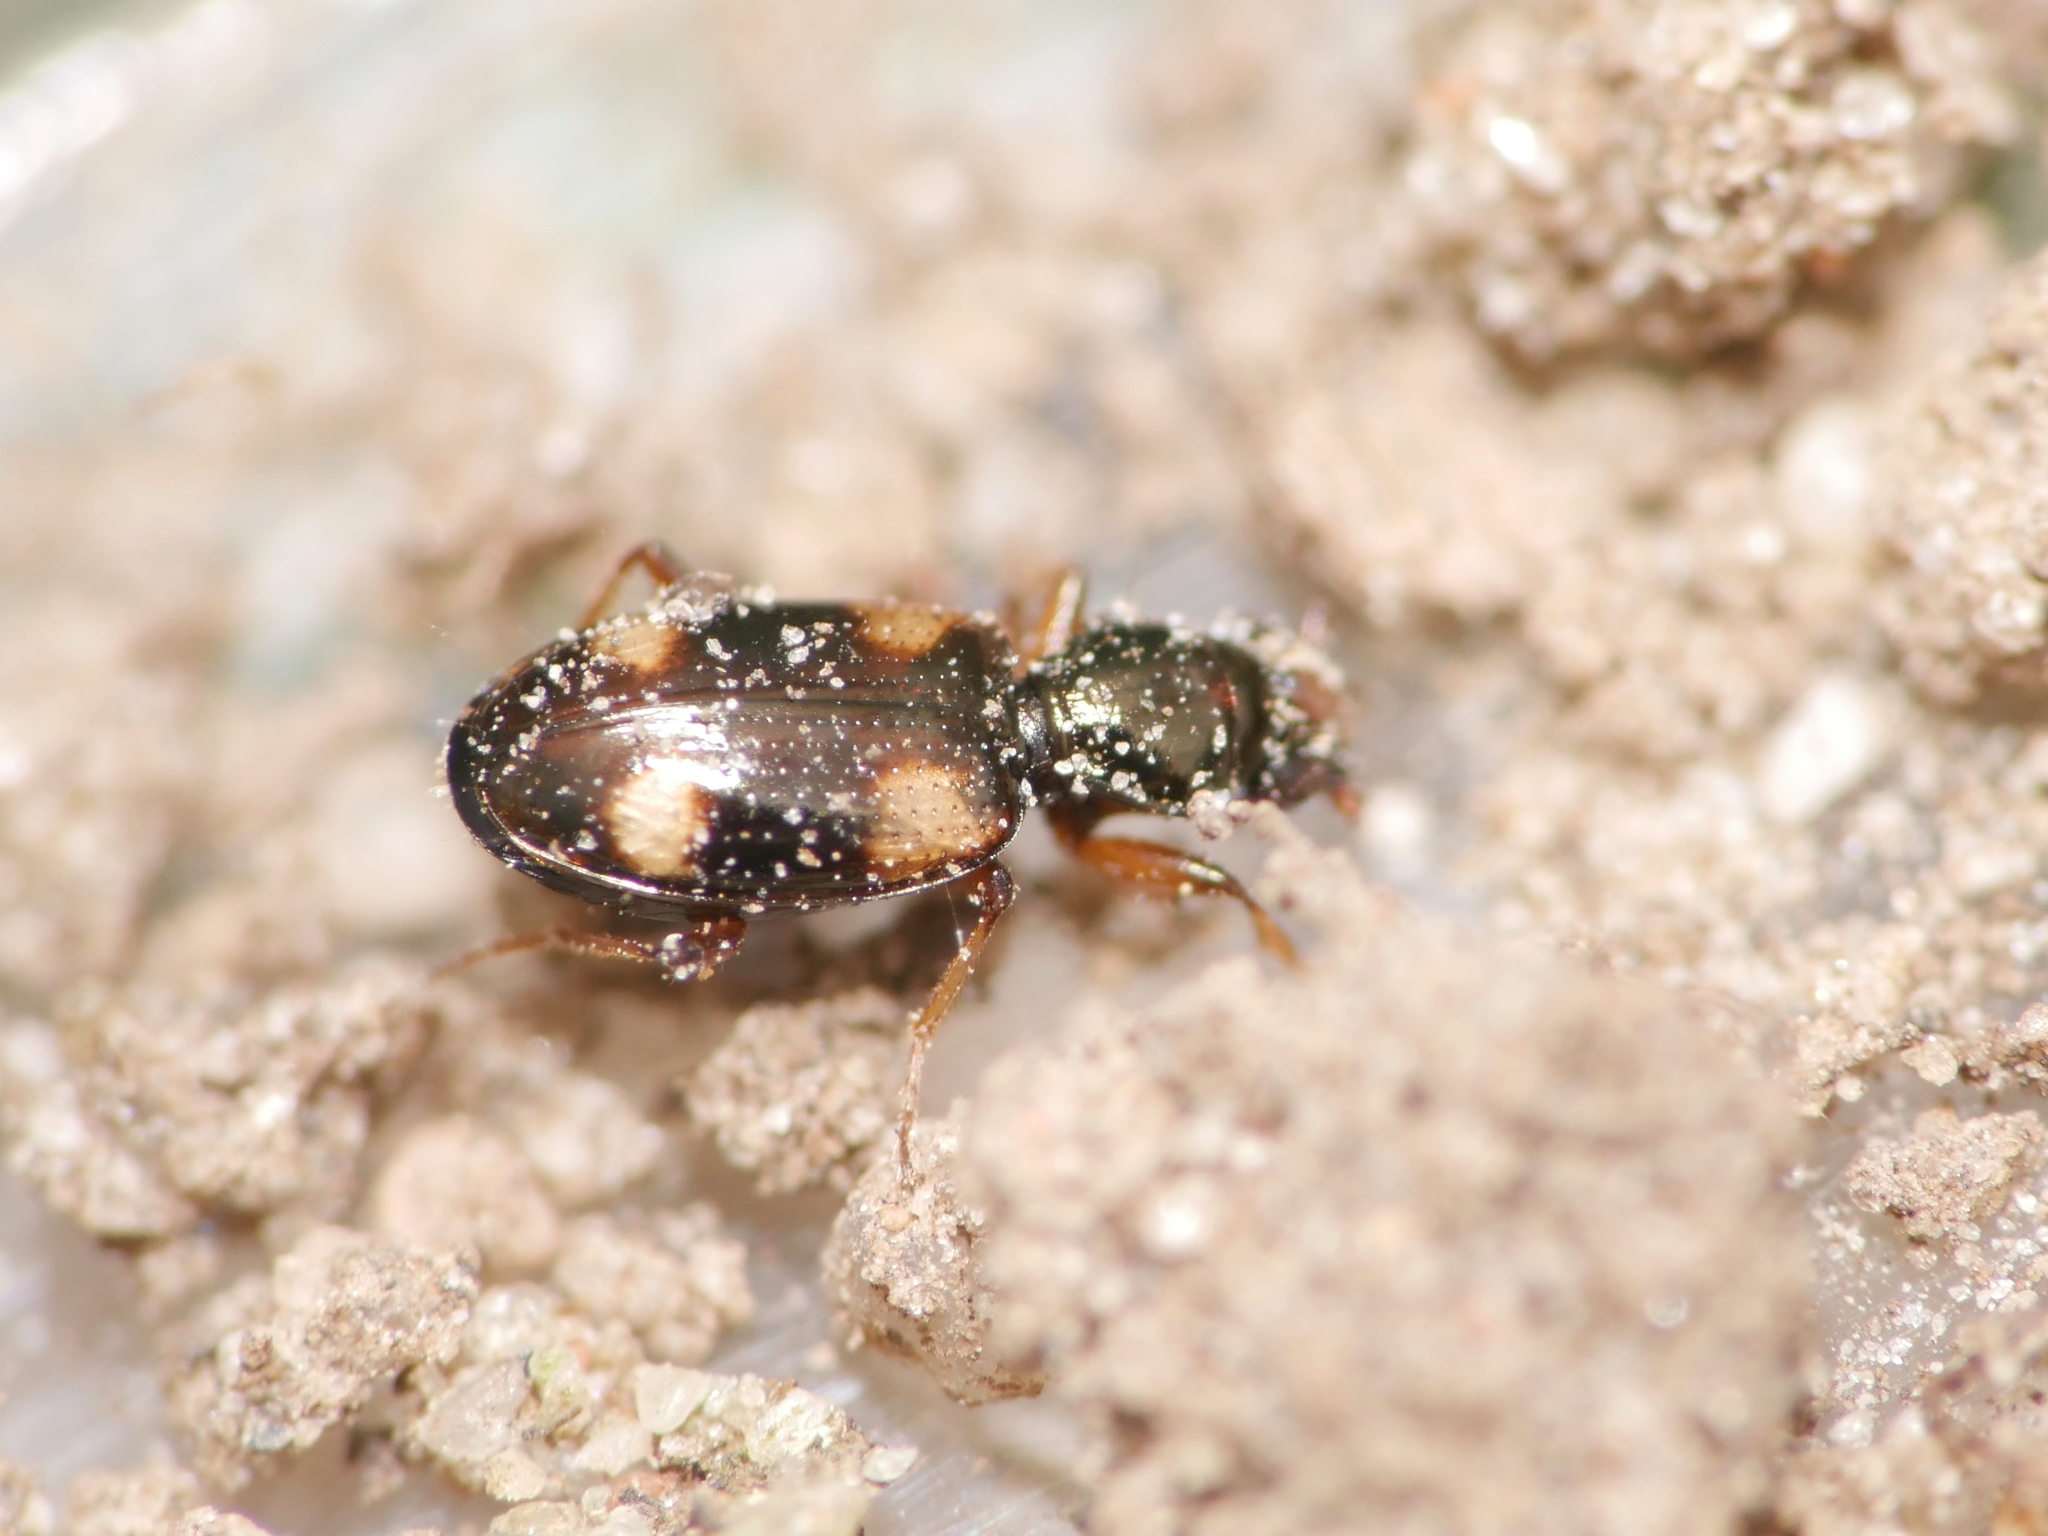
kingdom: Animalia
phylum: Arthropoda
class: Insecta
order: Coleoptera
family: Carabidae
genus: Bembidion
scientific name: Bembidion quadrimaculatum
